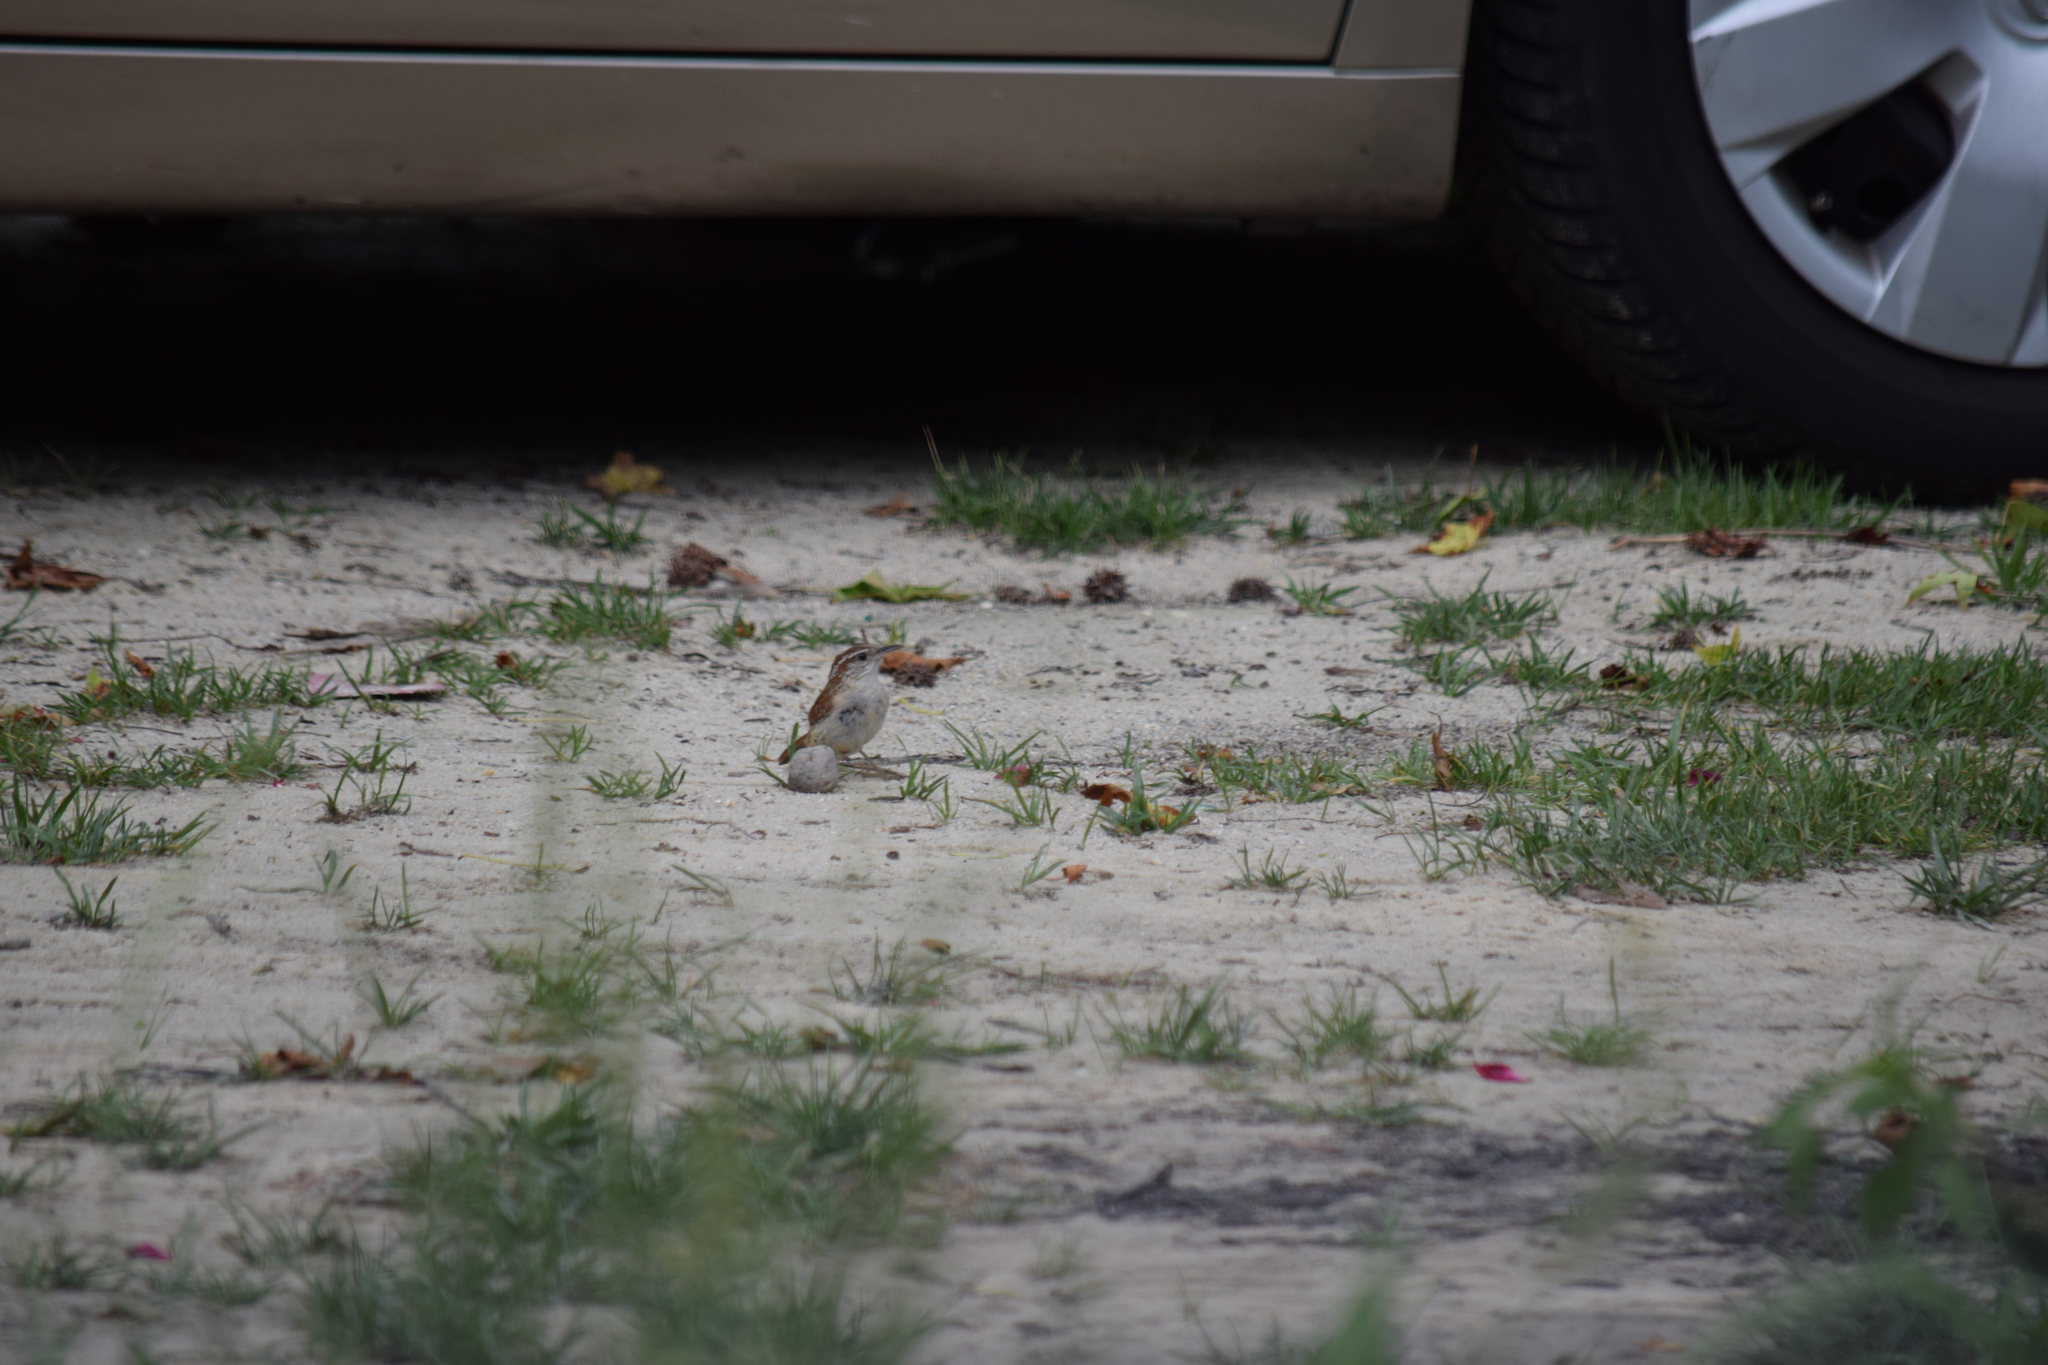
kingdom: Animalia
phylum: Chordata
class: Aves
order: Passeriformes
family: Troglodytidae
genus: Thryothorus
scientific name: Thryothorus ludovicianus
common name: Carolina wren
